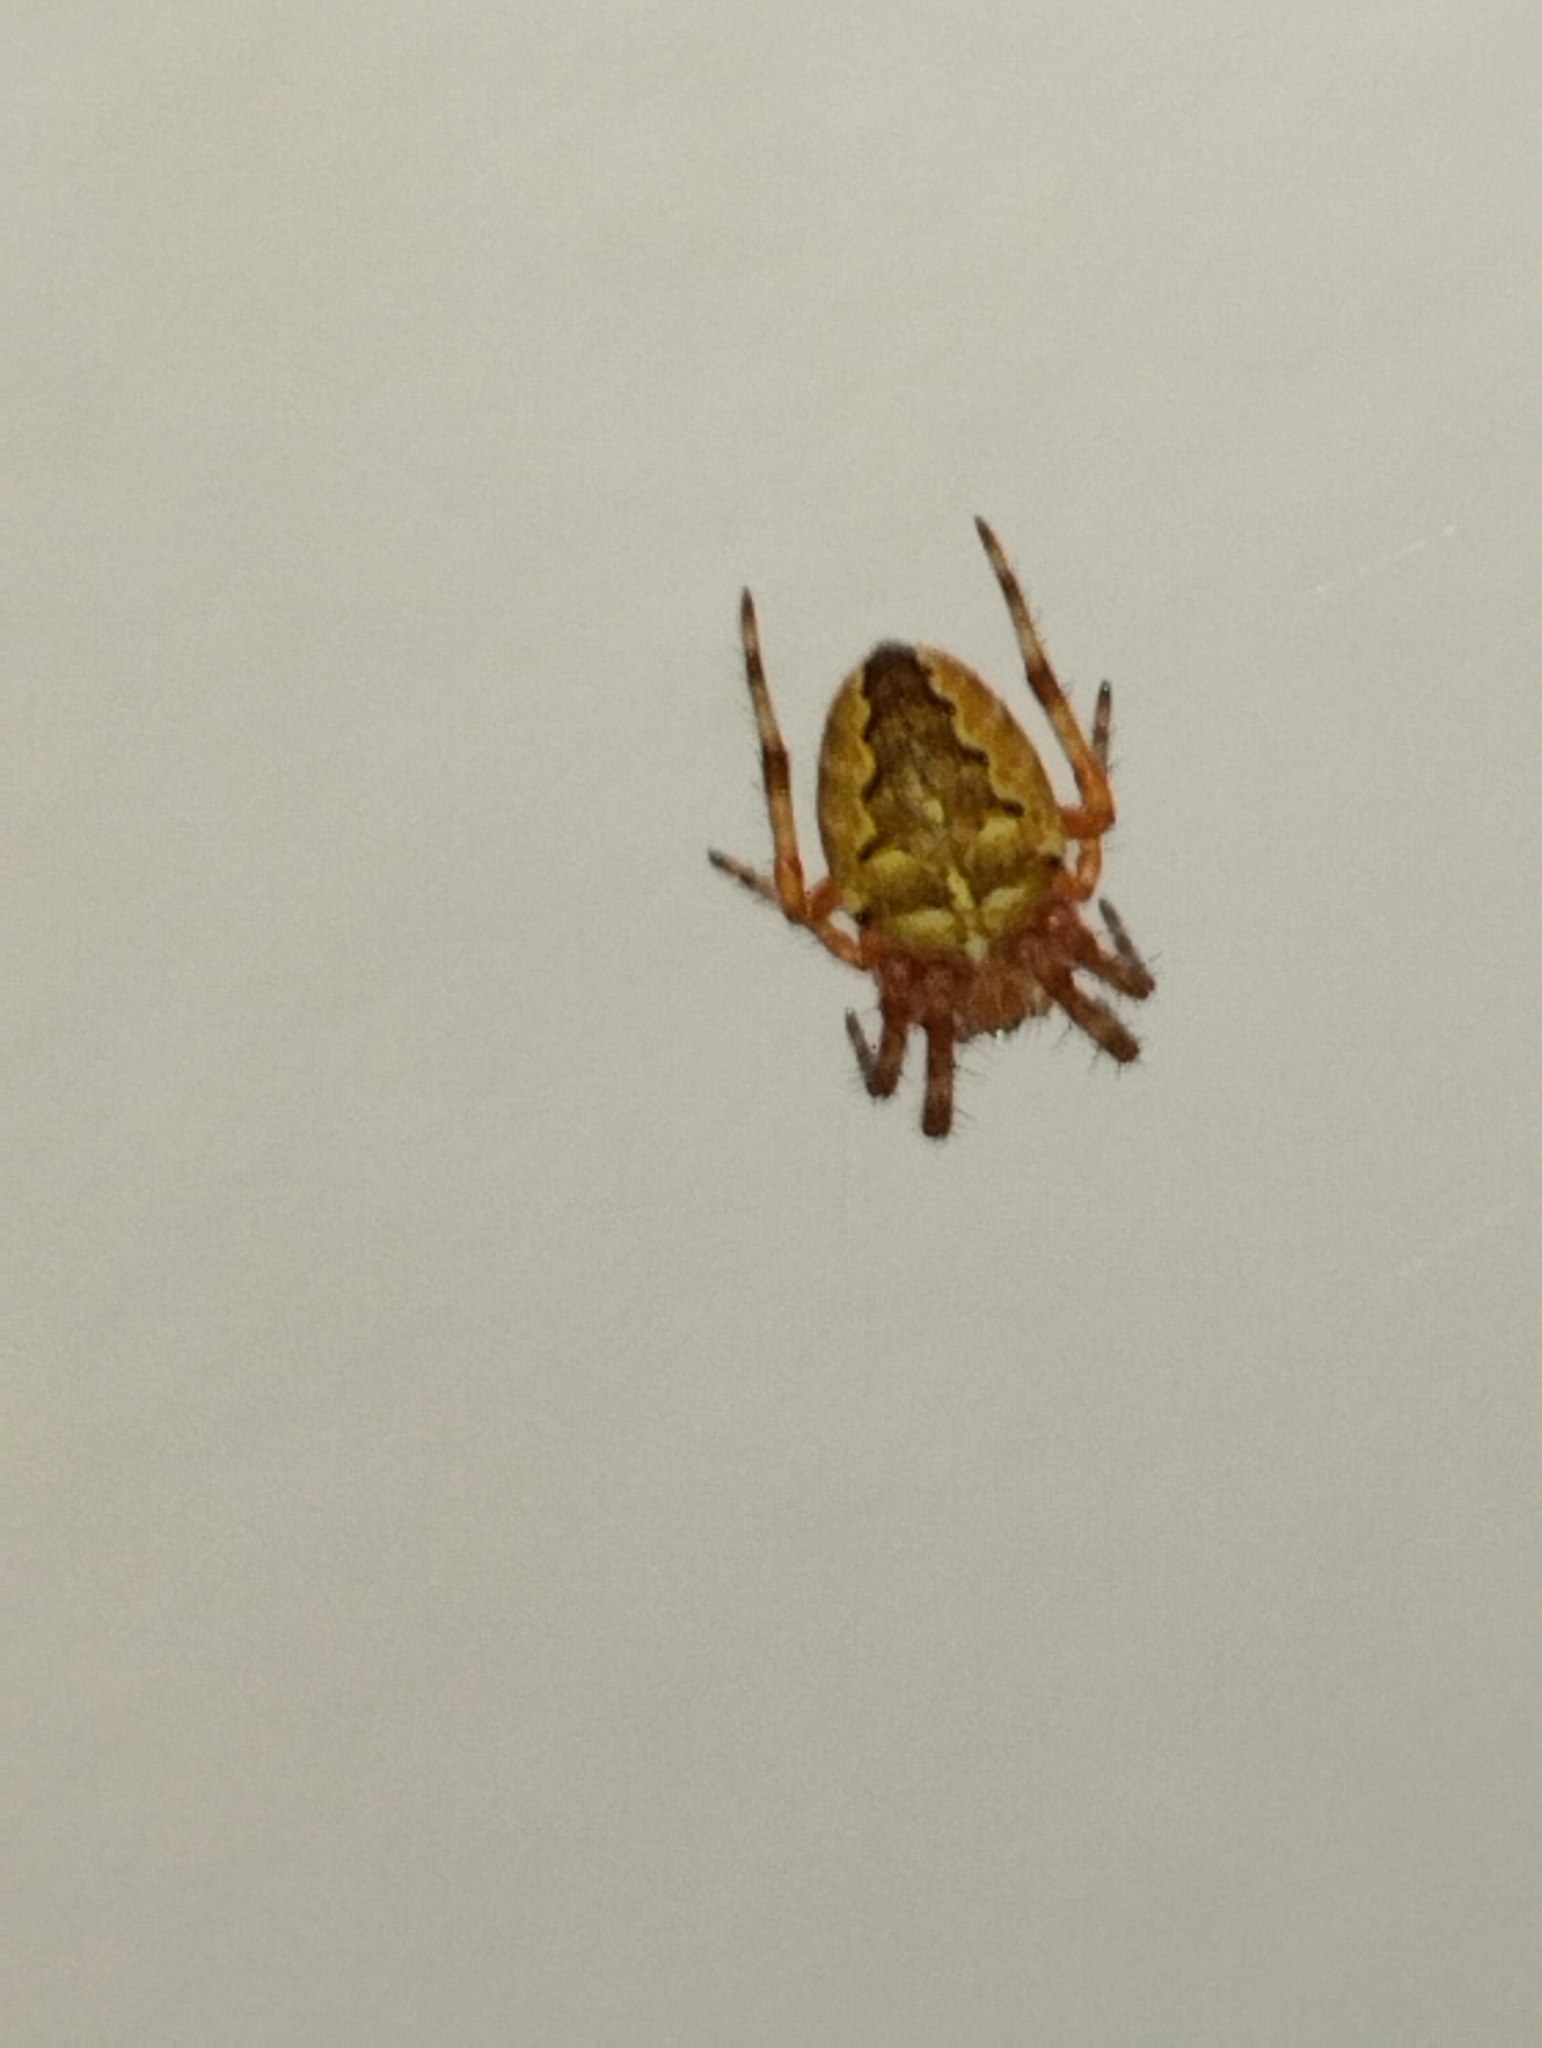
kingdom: Animalia
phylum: Arthropoda
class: Arachnida
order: Araneae
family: Araneidae
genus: Araneus
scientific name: Araneus diadematus
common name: Cross orbweaver
